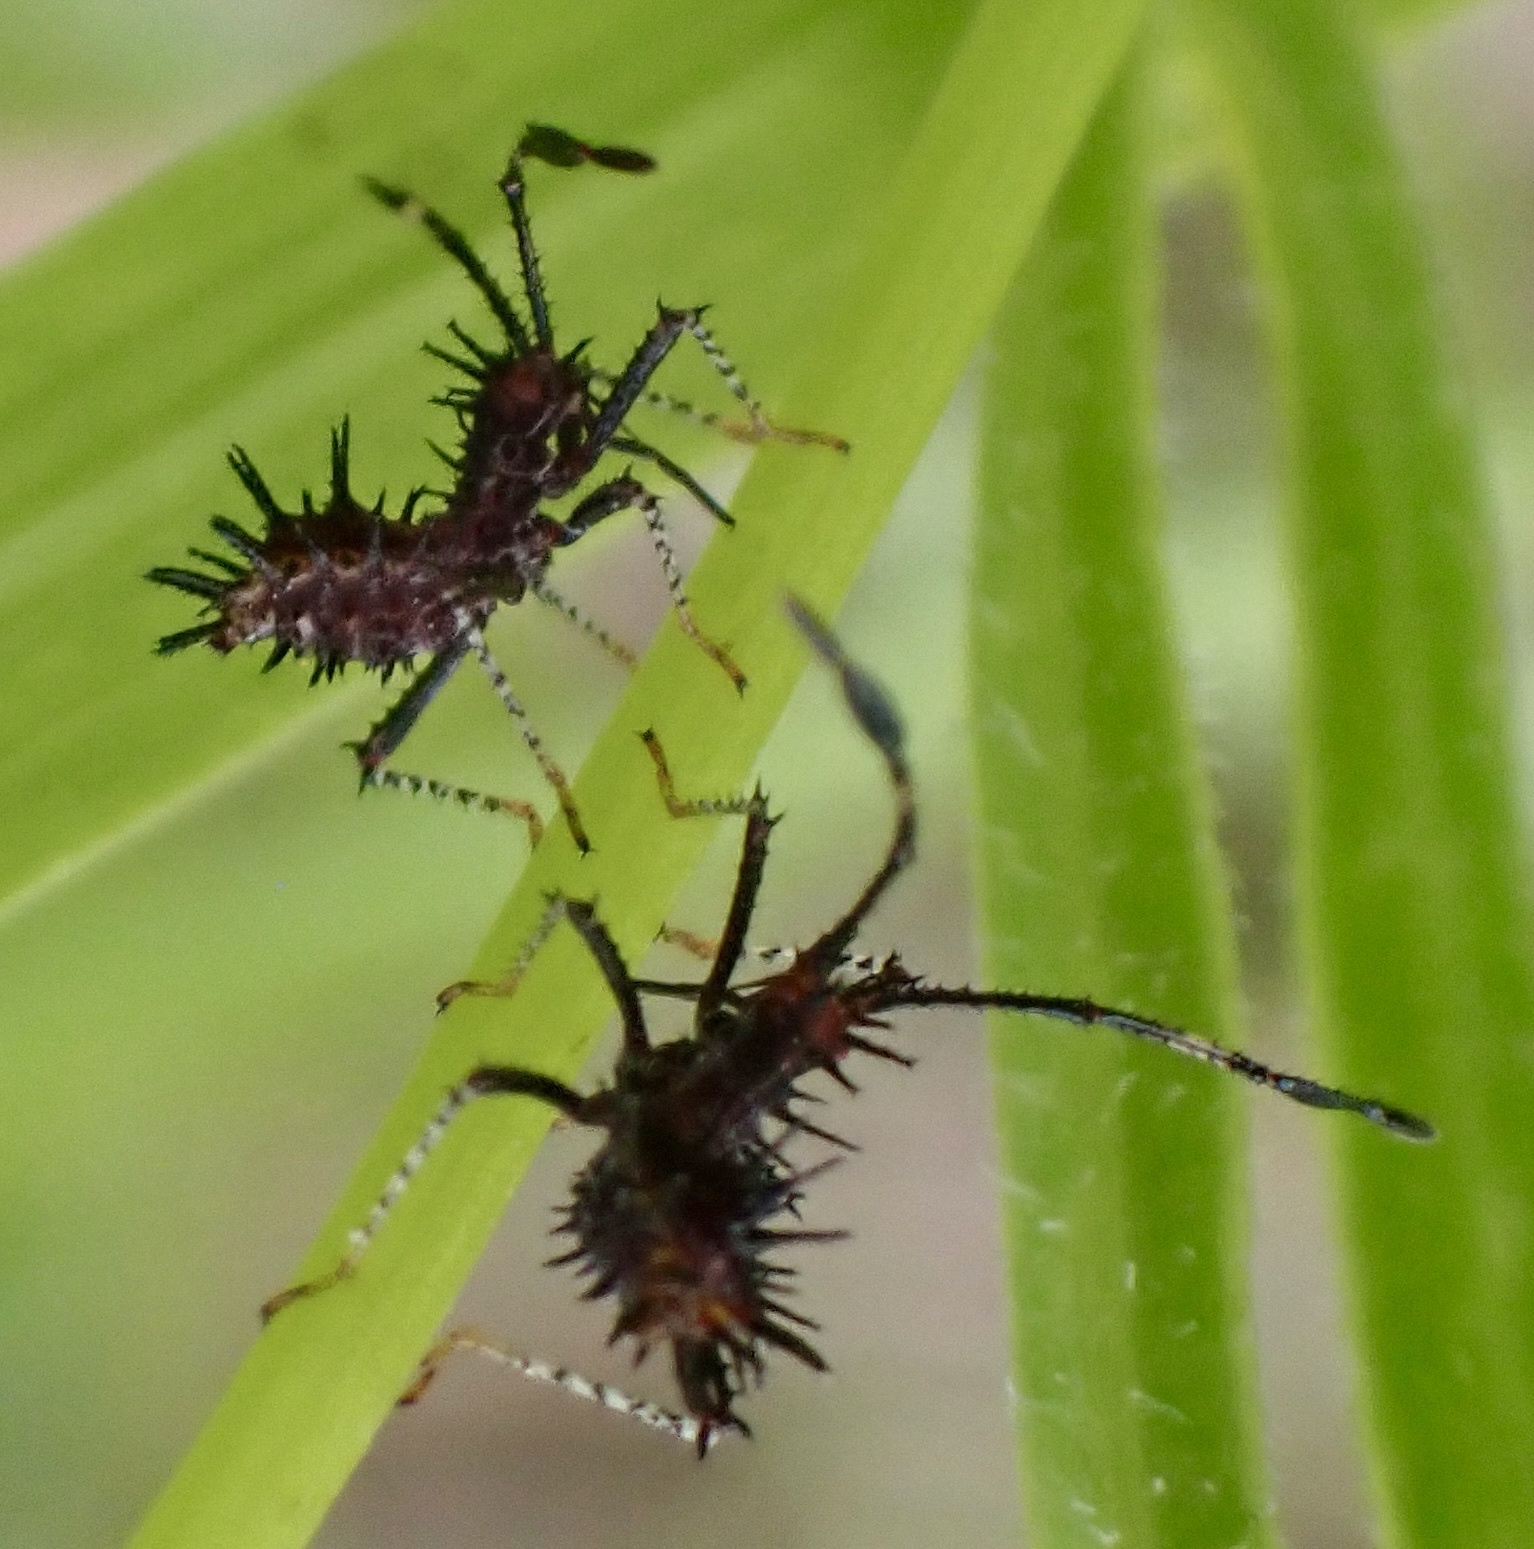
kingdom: Animalia
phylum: Arthropoda
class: Insecta
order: Hemiptera
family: Coreidae
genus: Euthochtha
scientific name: Euthochtha galeator
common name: Helmeted squash bug
